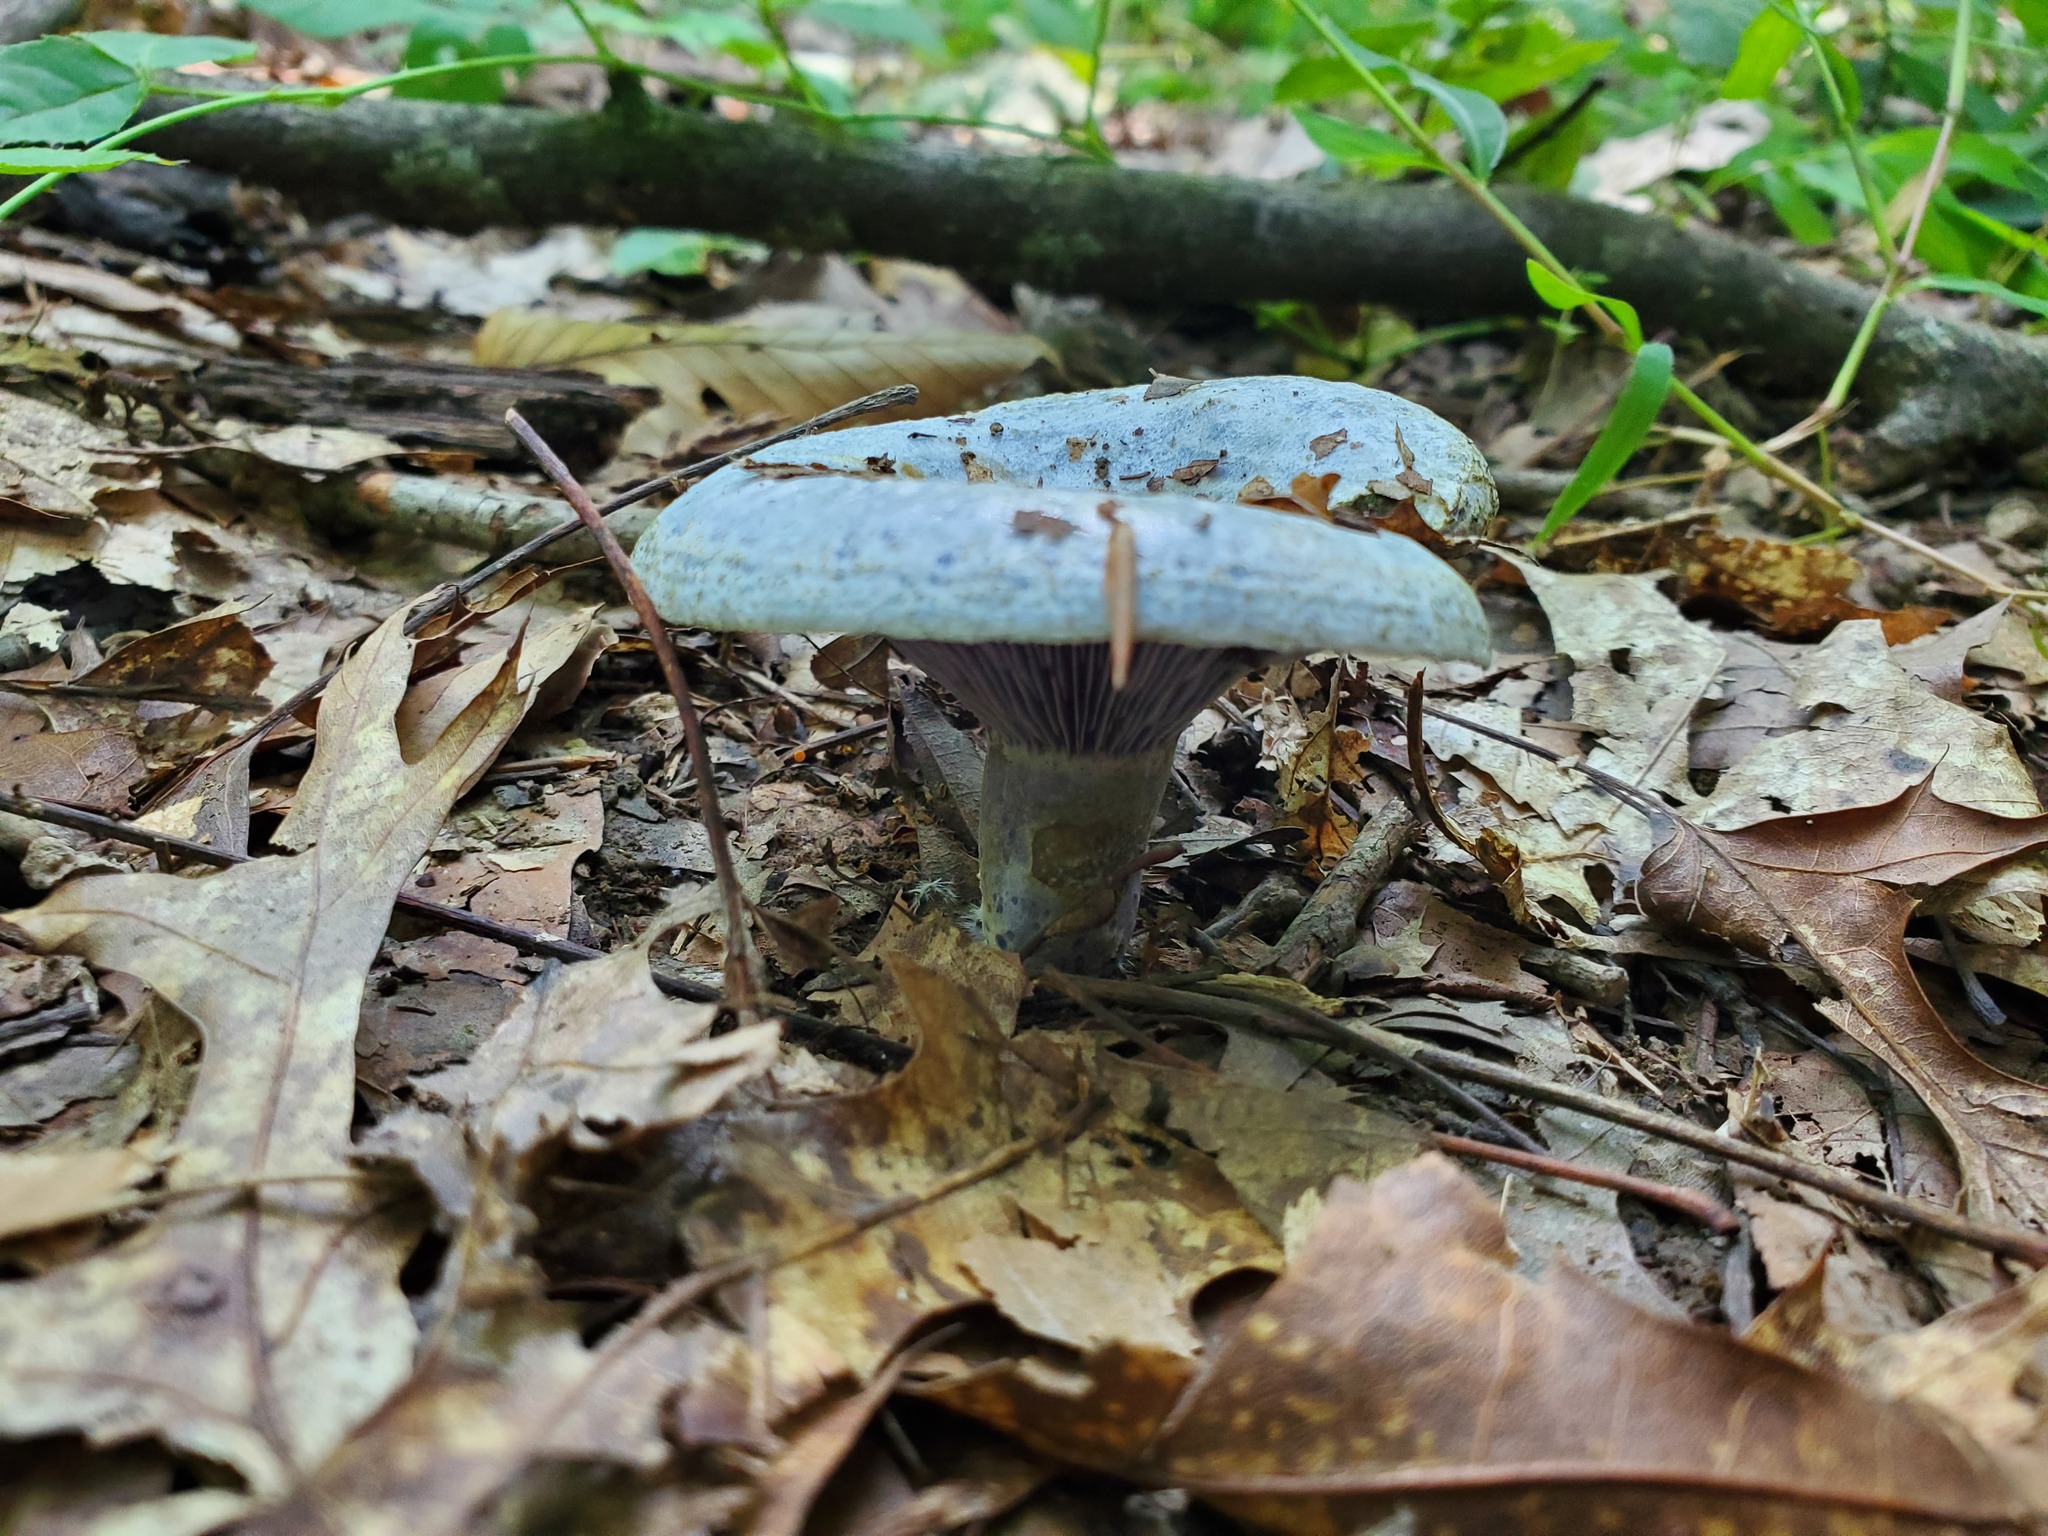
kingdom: Fungi
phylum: Basidiomycota
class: Agaricomycetes
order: Russulales
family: Russulaceae
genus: Lactarius
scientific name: Lactarius indigo
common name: Indigo milk cap
